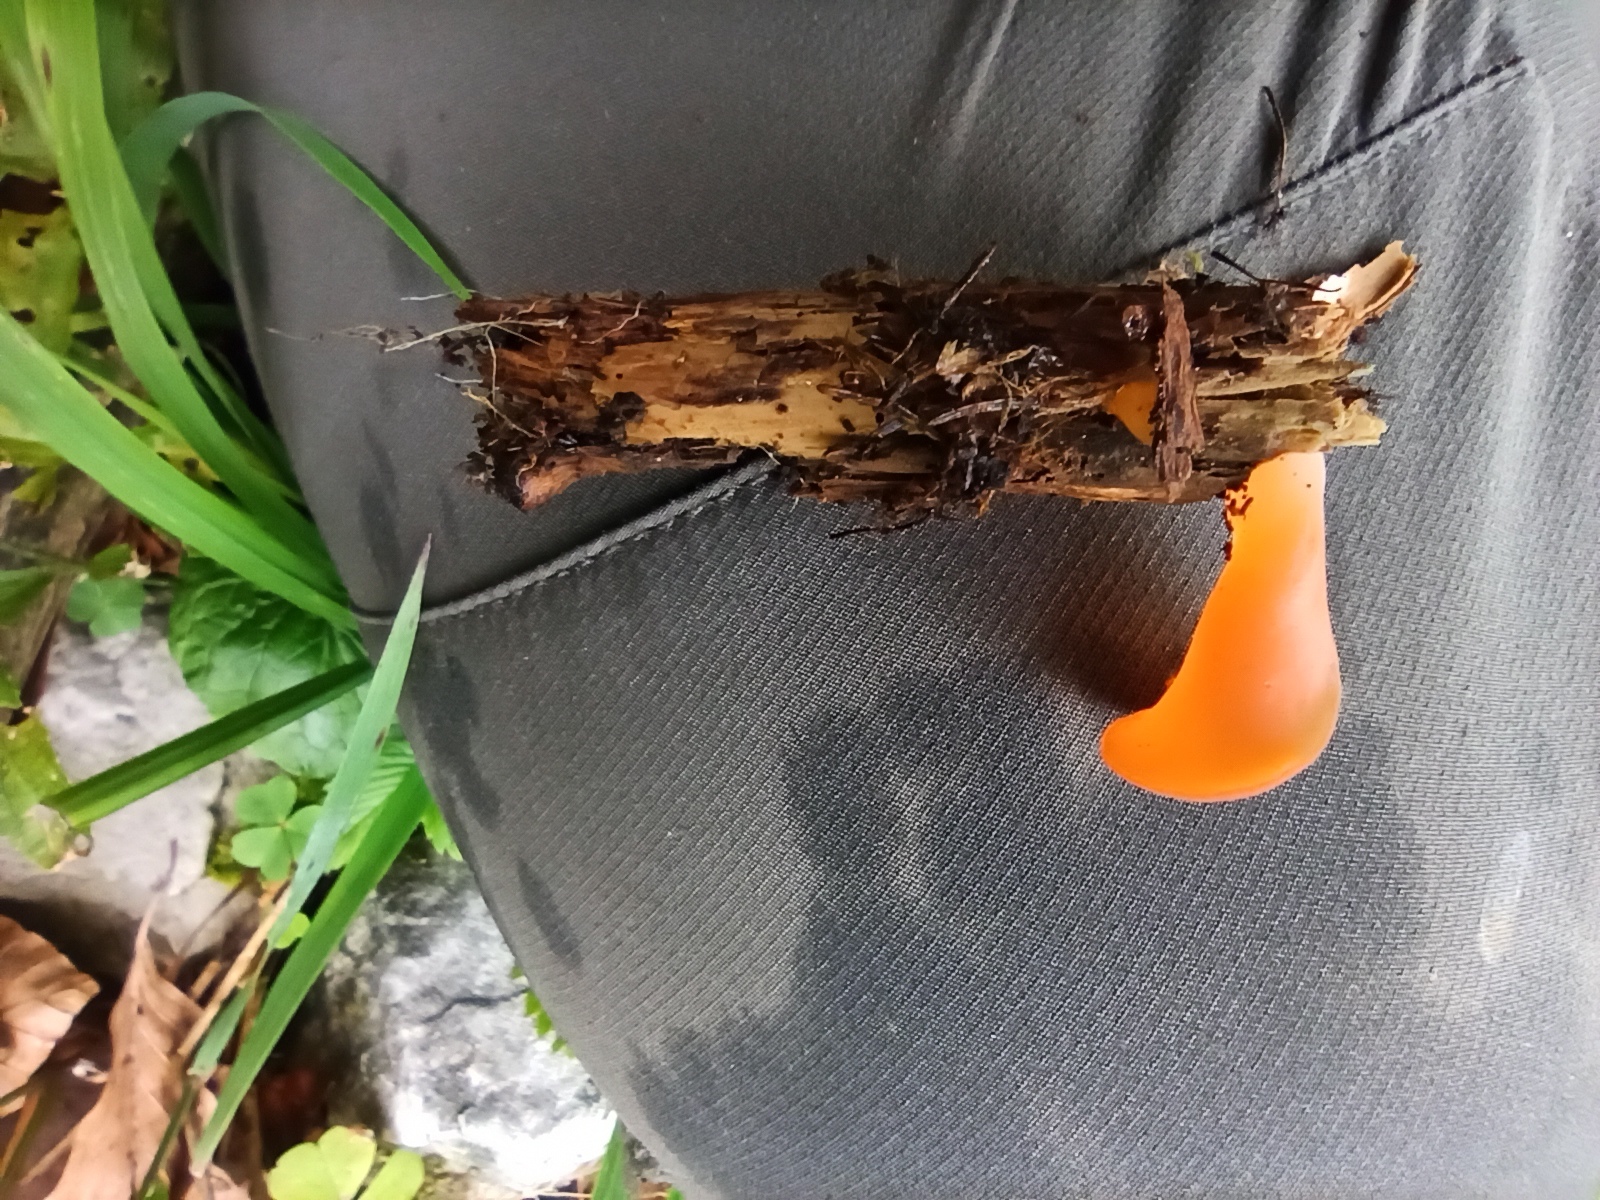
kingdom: Fungi
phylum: Basidiomycota
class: Agaricomycetes
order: Auriculariales
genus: Guepinia
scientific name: Guepinia helvelloides
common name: Salmon salad
